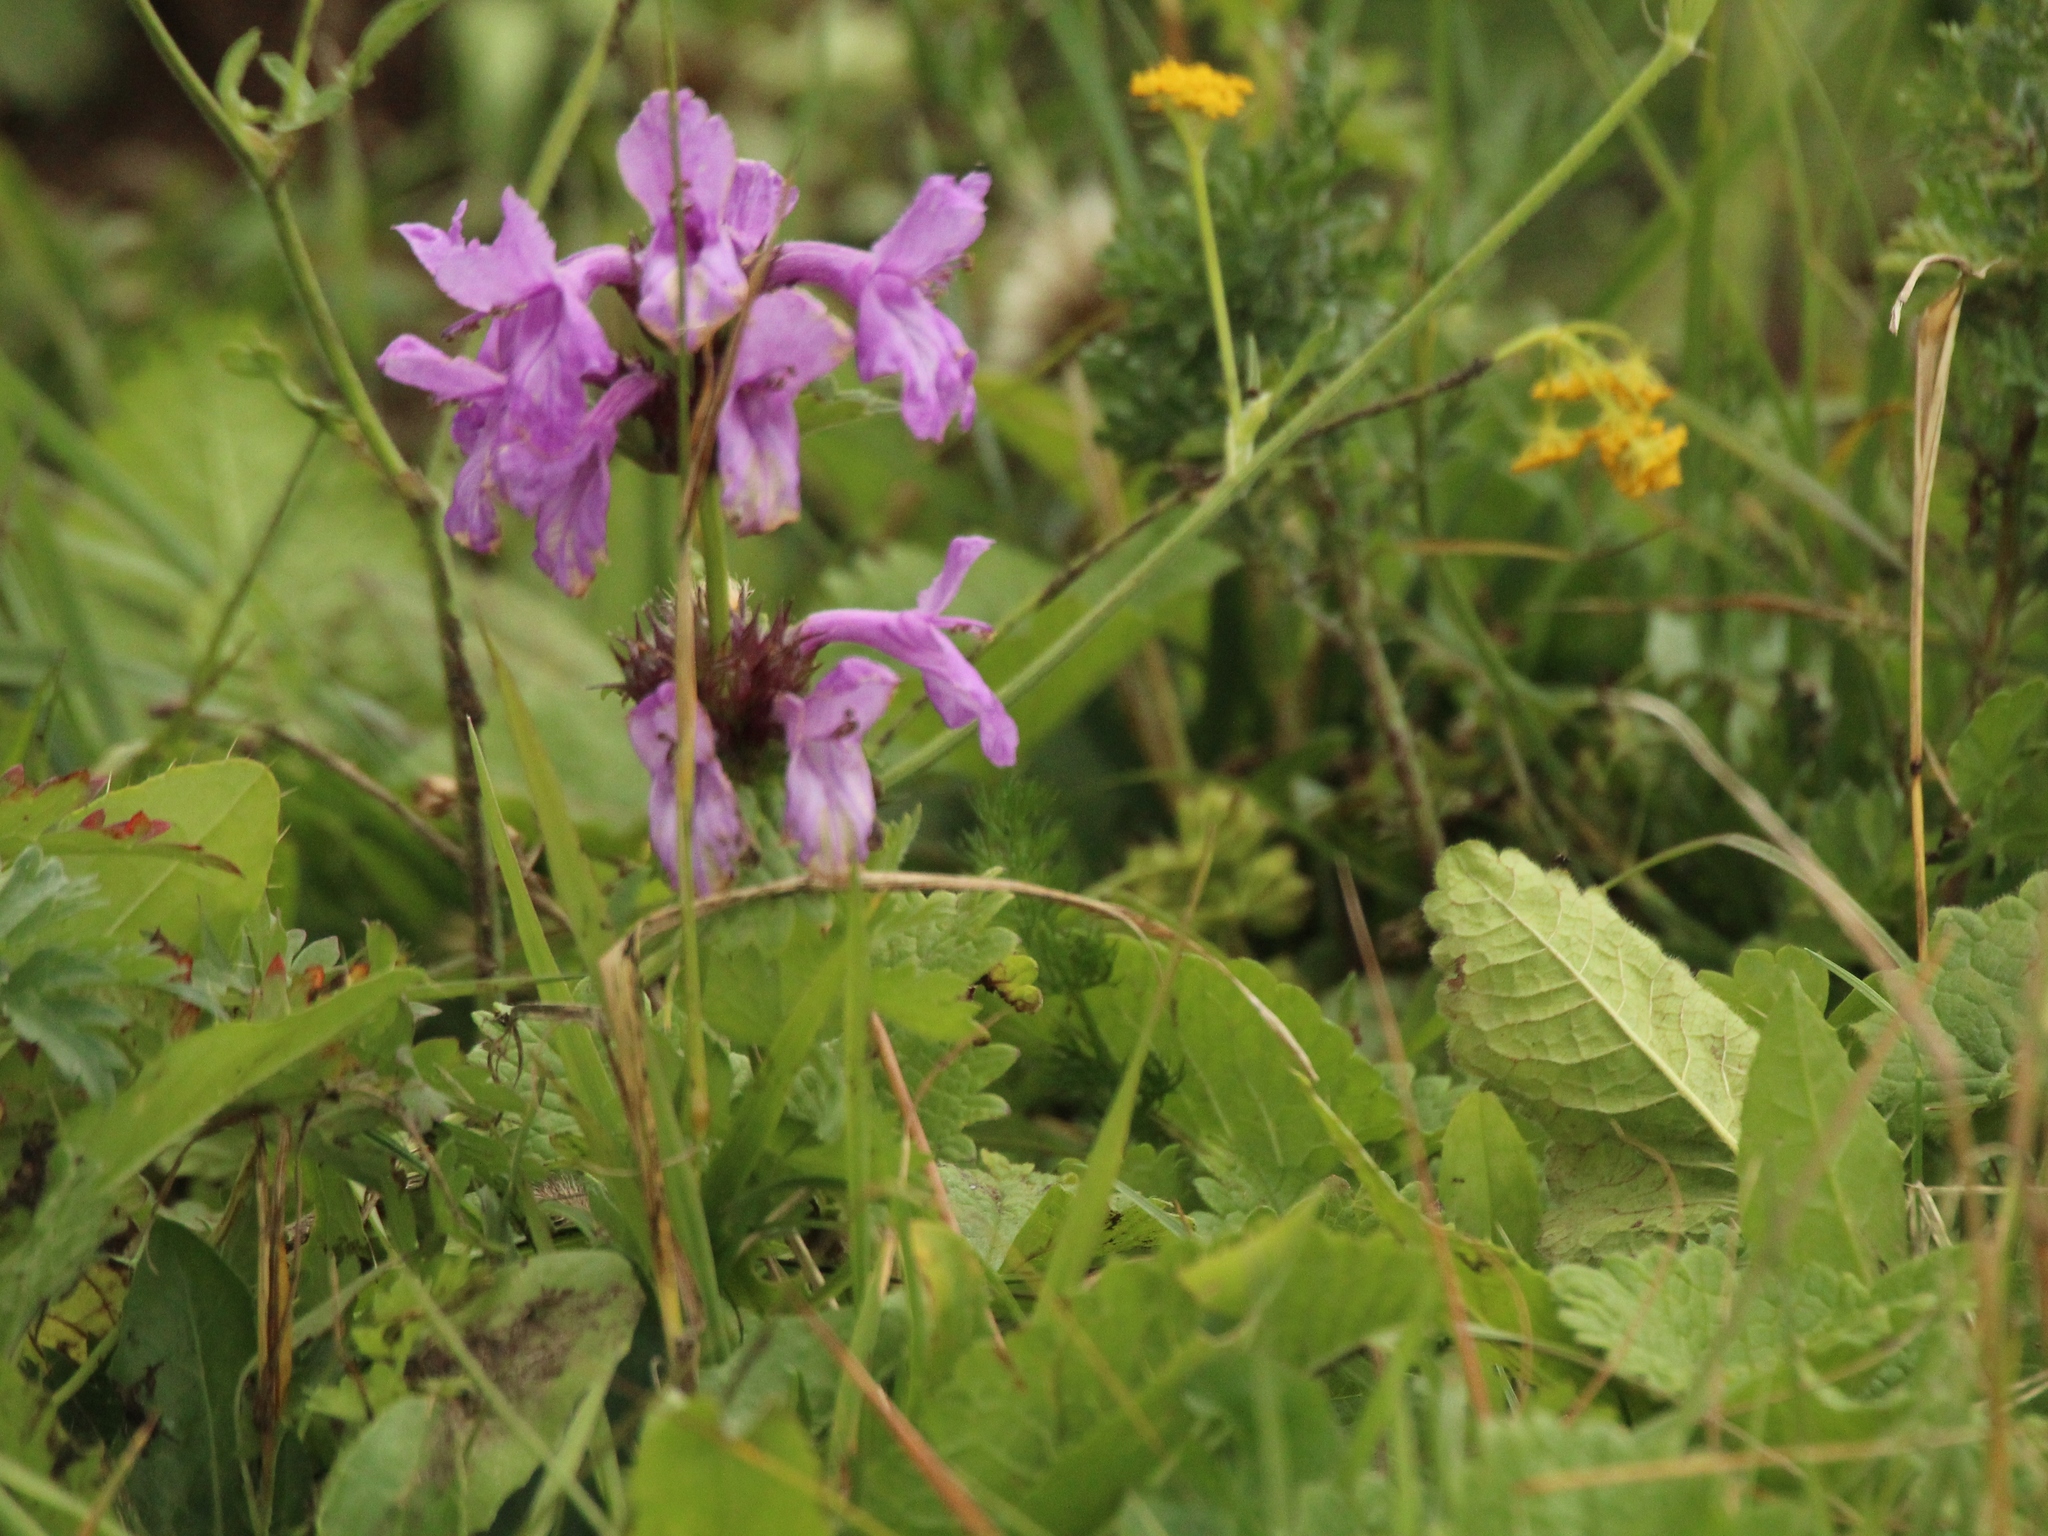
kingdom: Plantae
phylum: Tracheophyta
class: Magnoliopsida
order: Lamiales
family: Lamiaceae
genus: Betonica
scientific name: Betonica macrantha
